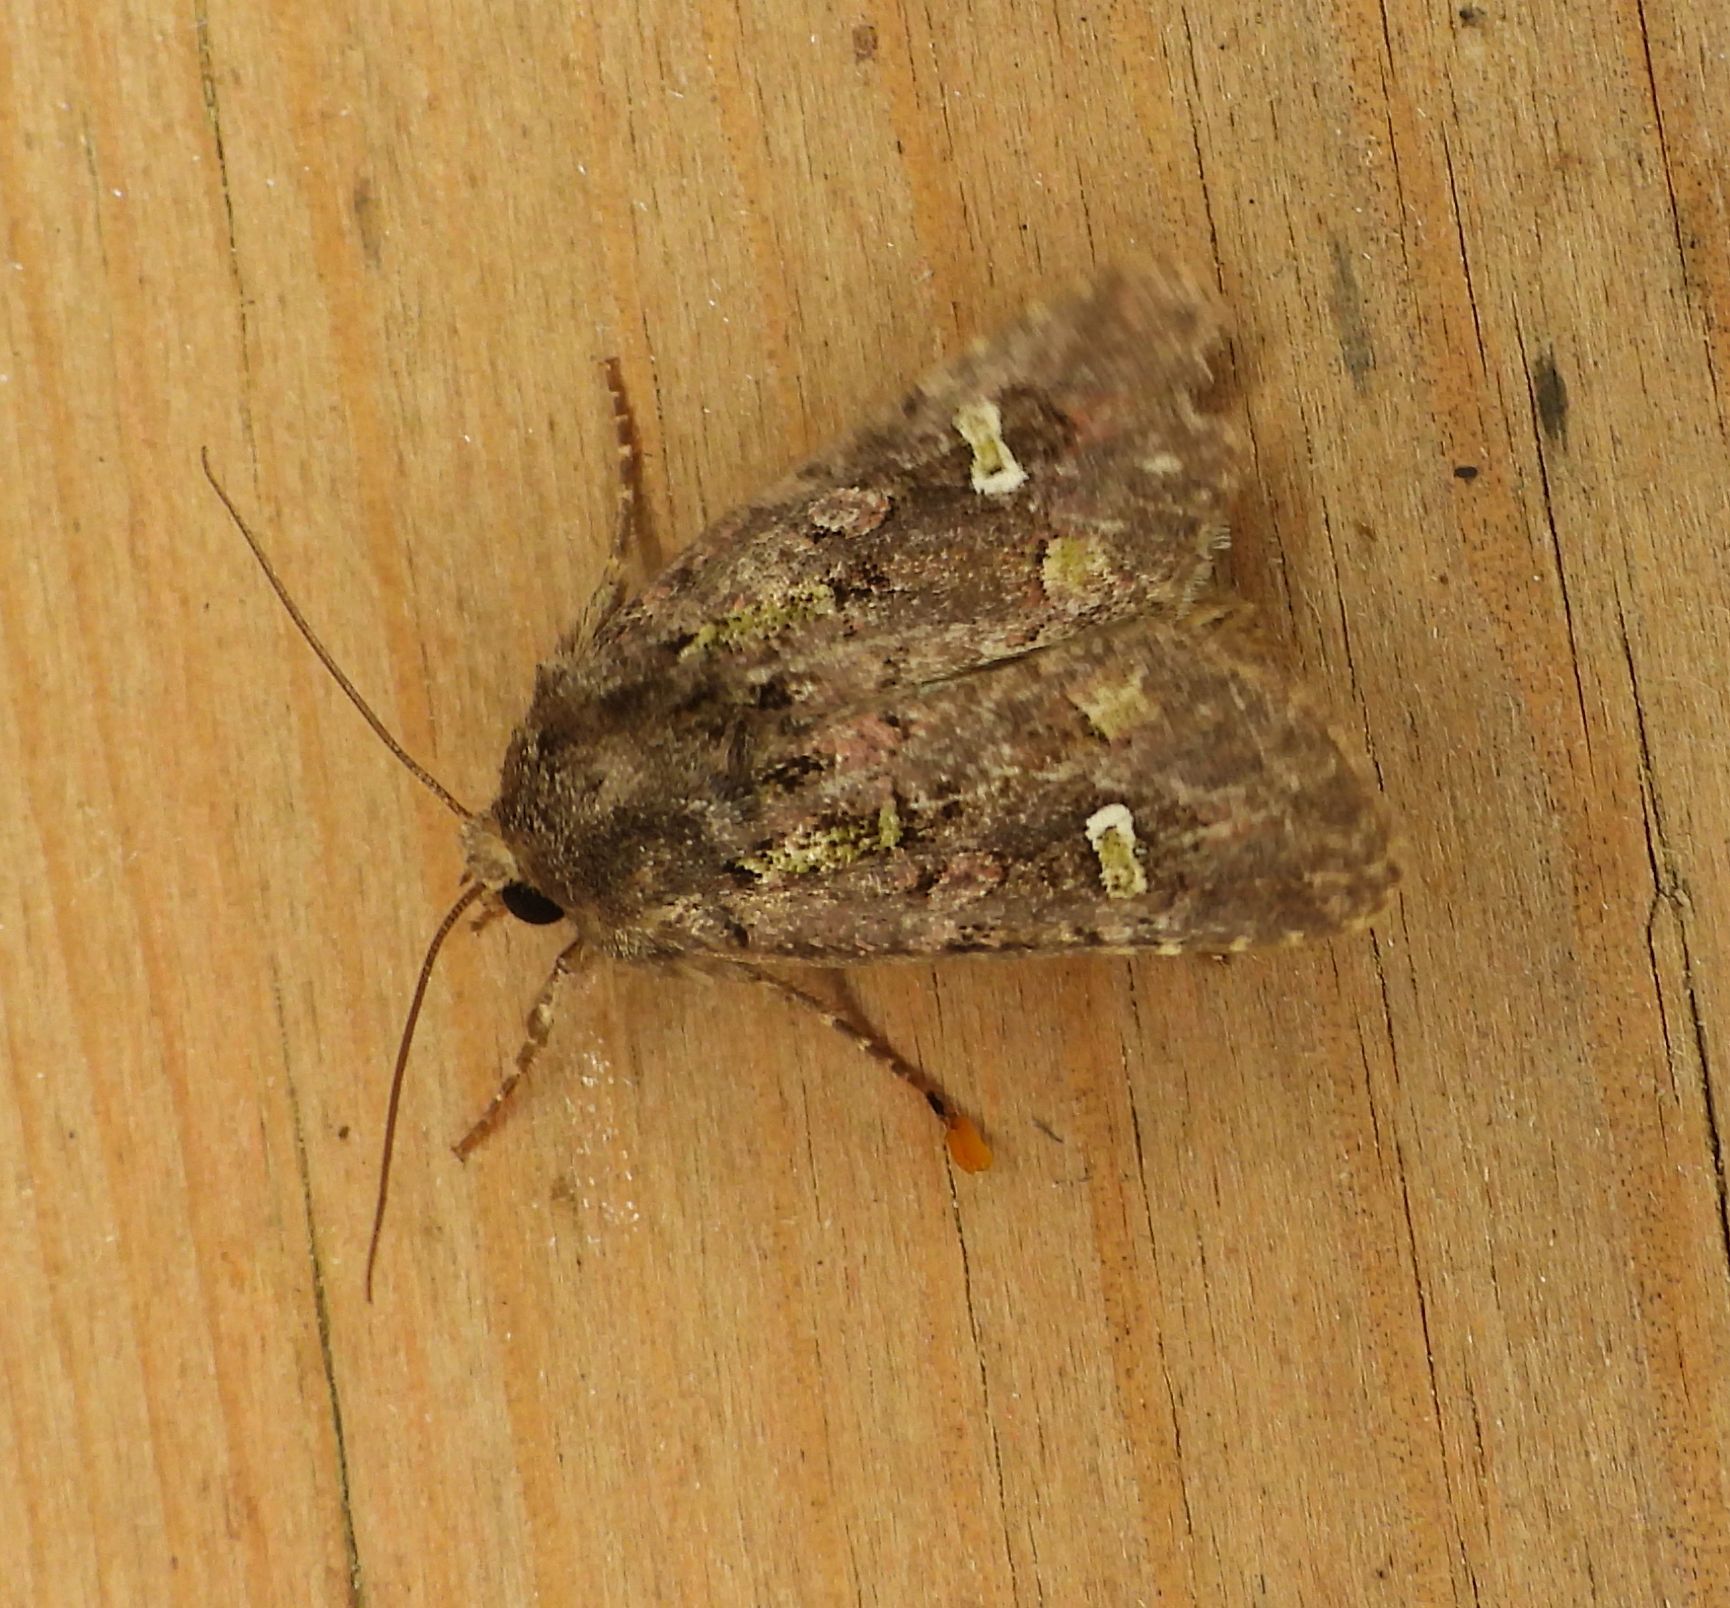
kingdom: Animalia
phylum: Arthropoda
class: Insecta
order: Lepidoptera
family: Noctuidae
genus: Lacinipolia
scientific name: Lacinipolia renigera
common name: Kidney-spotted minor
